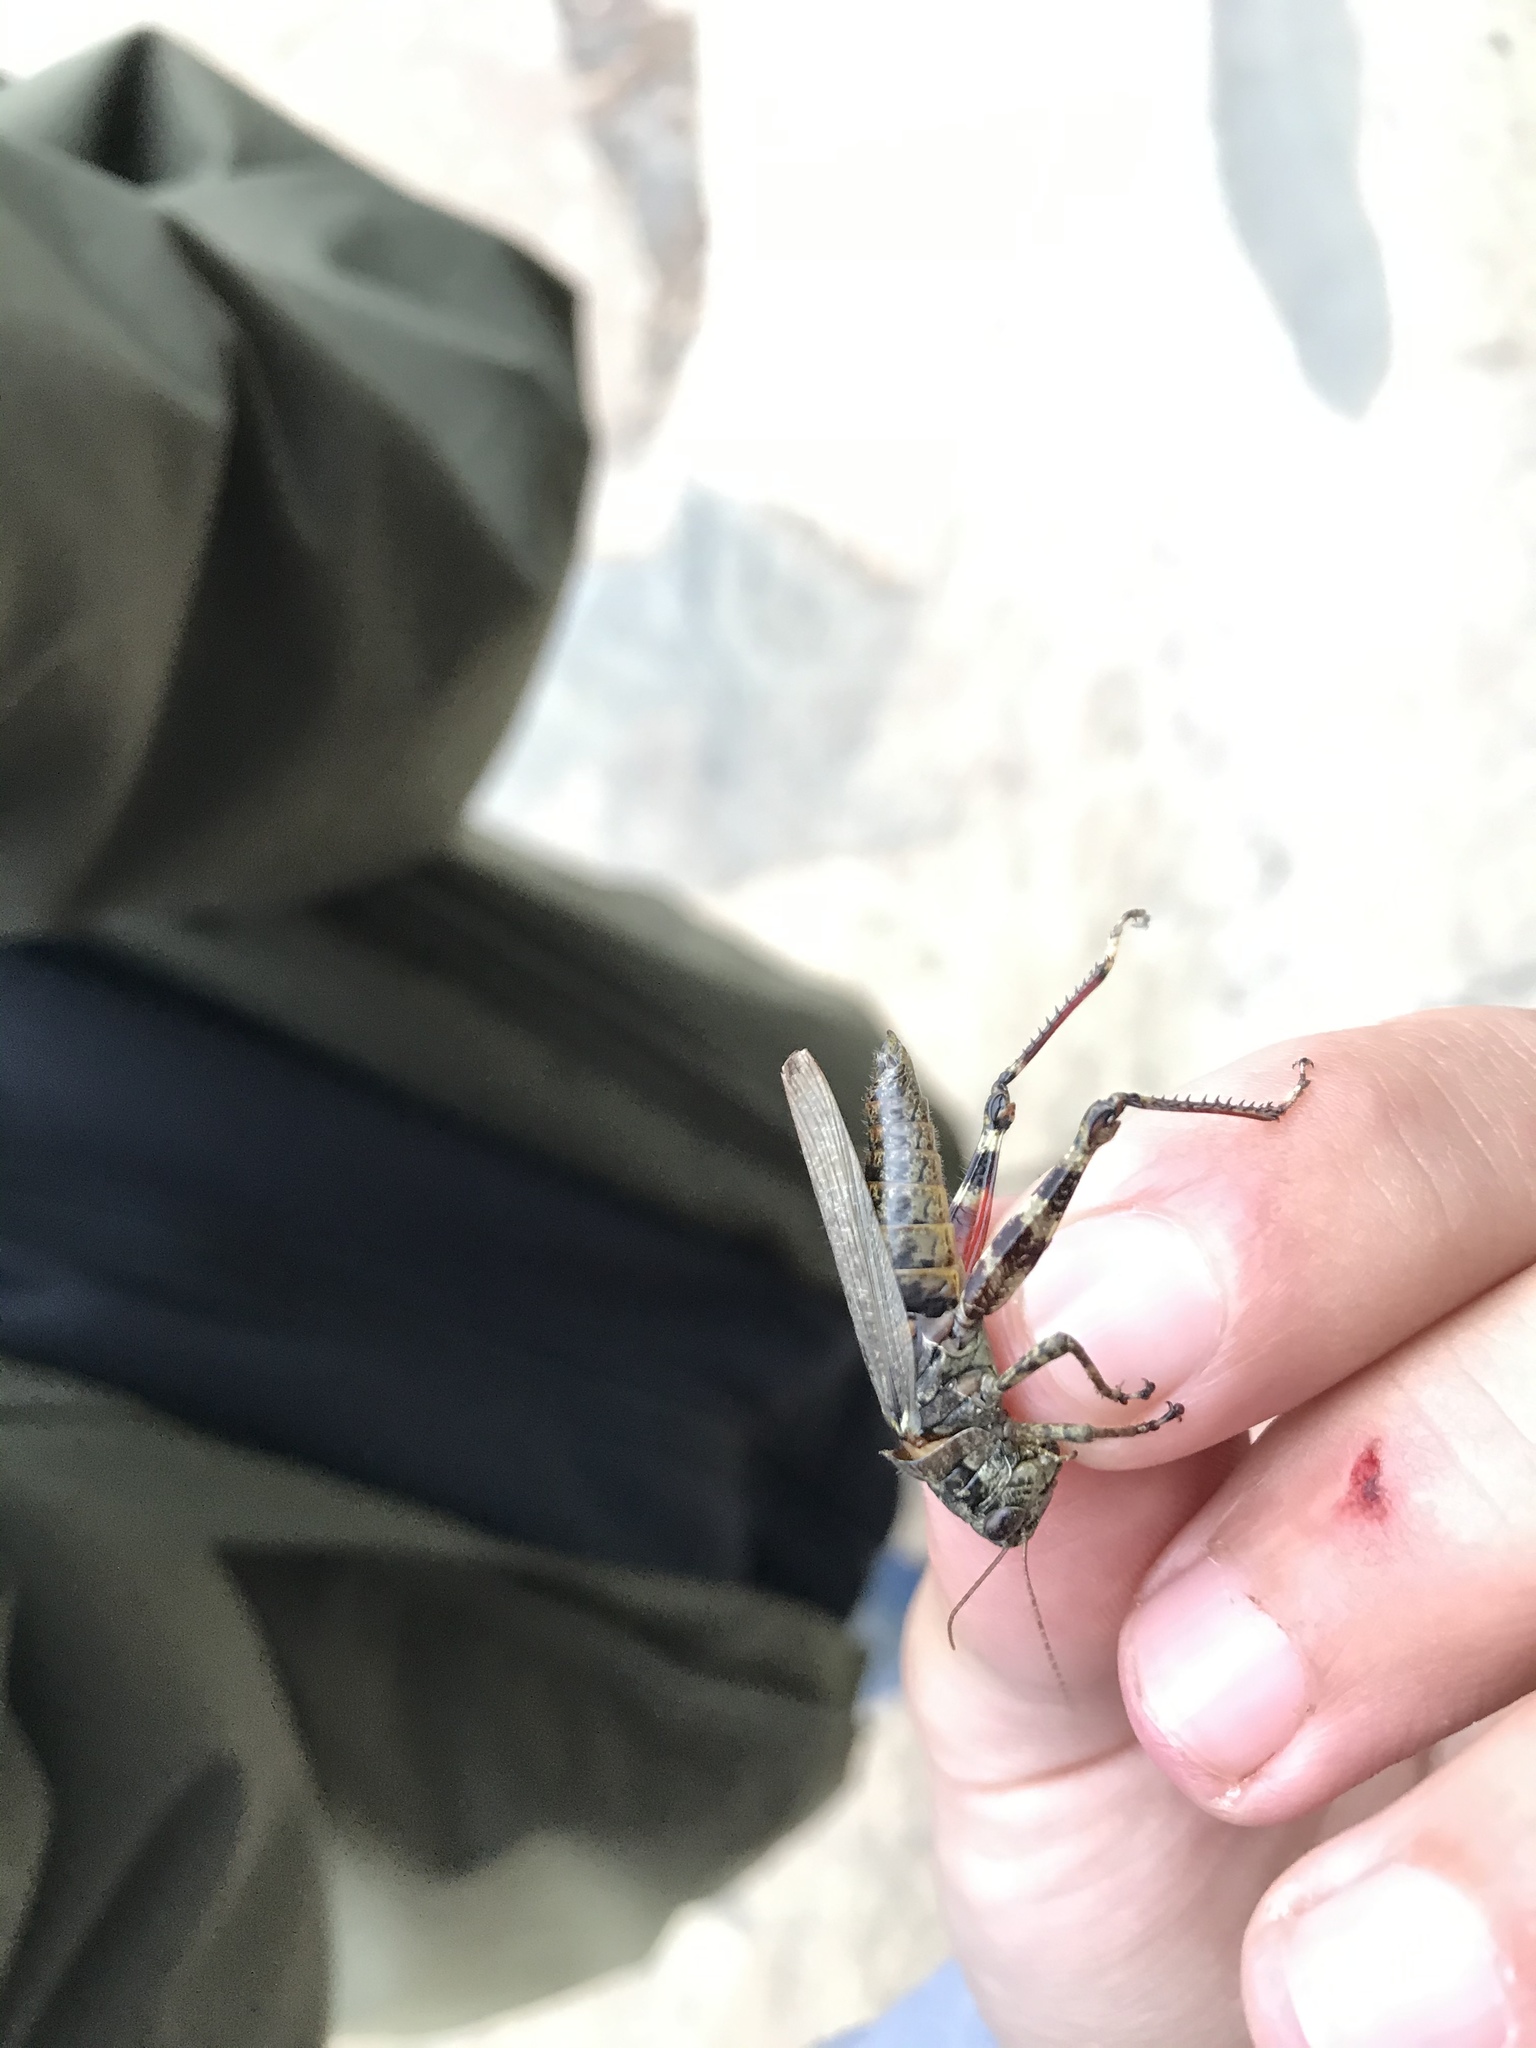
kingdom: Animalia
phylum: Arthropoda
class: Insecta
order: Orthoptera
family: Acrididae
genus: Melanoplus
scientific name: Melanoplus punctulatus
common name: Pine-tree spur-throat grasshopper
